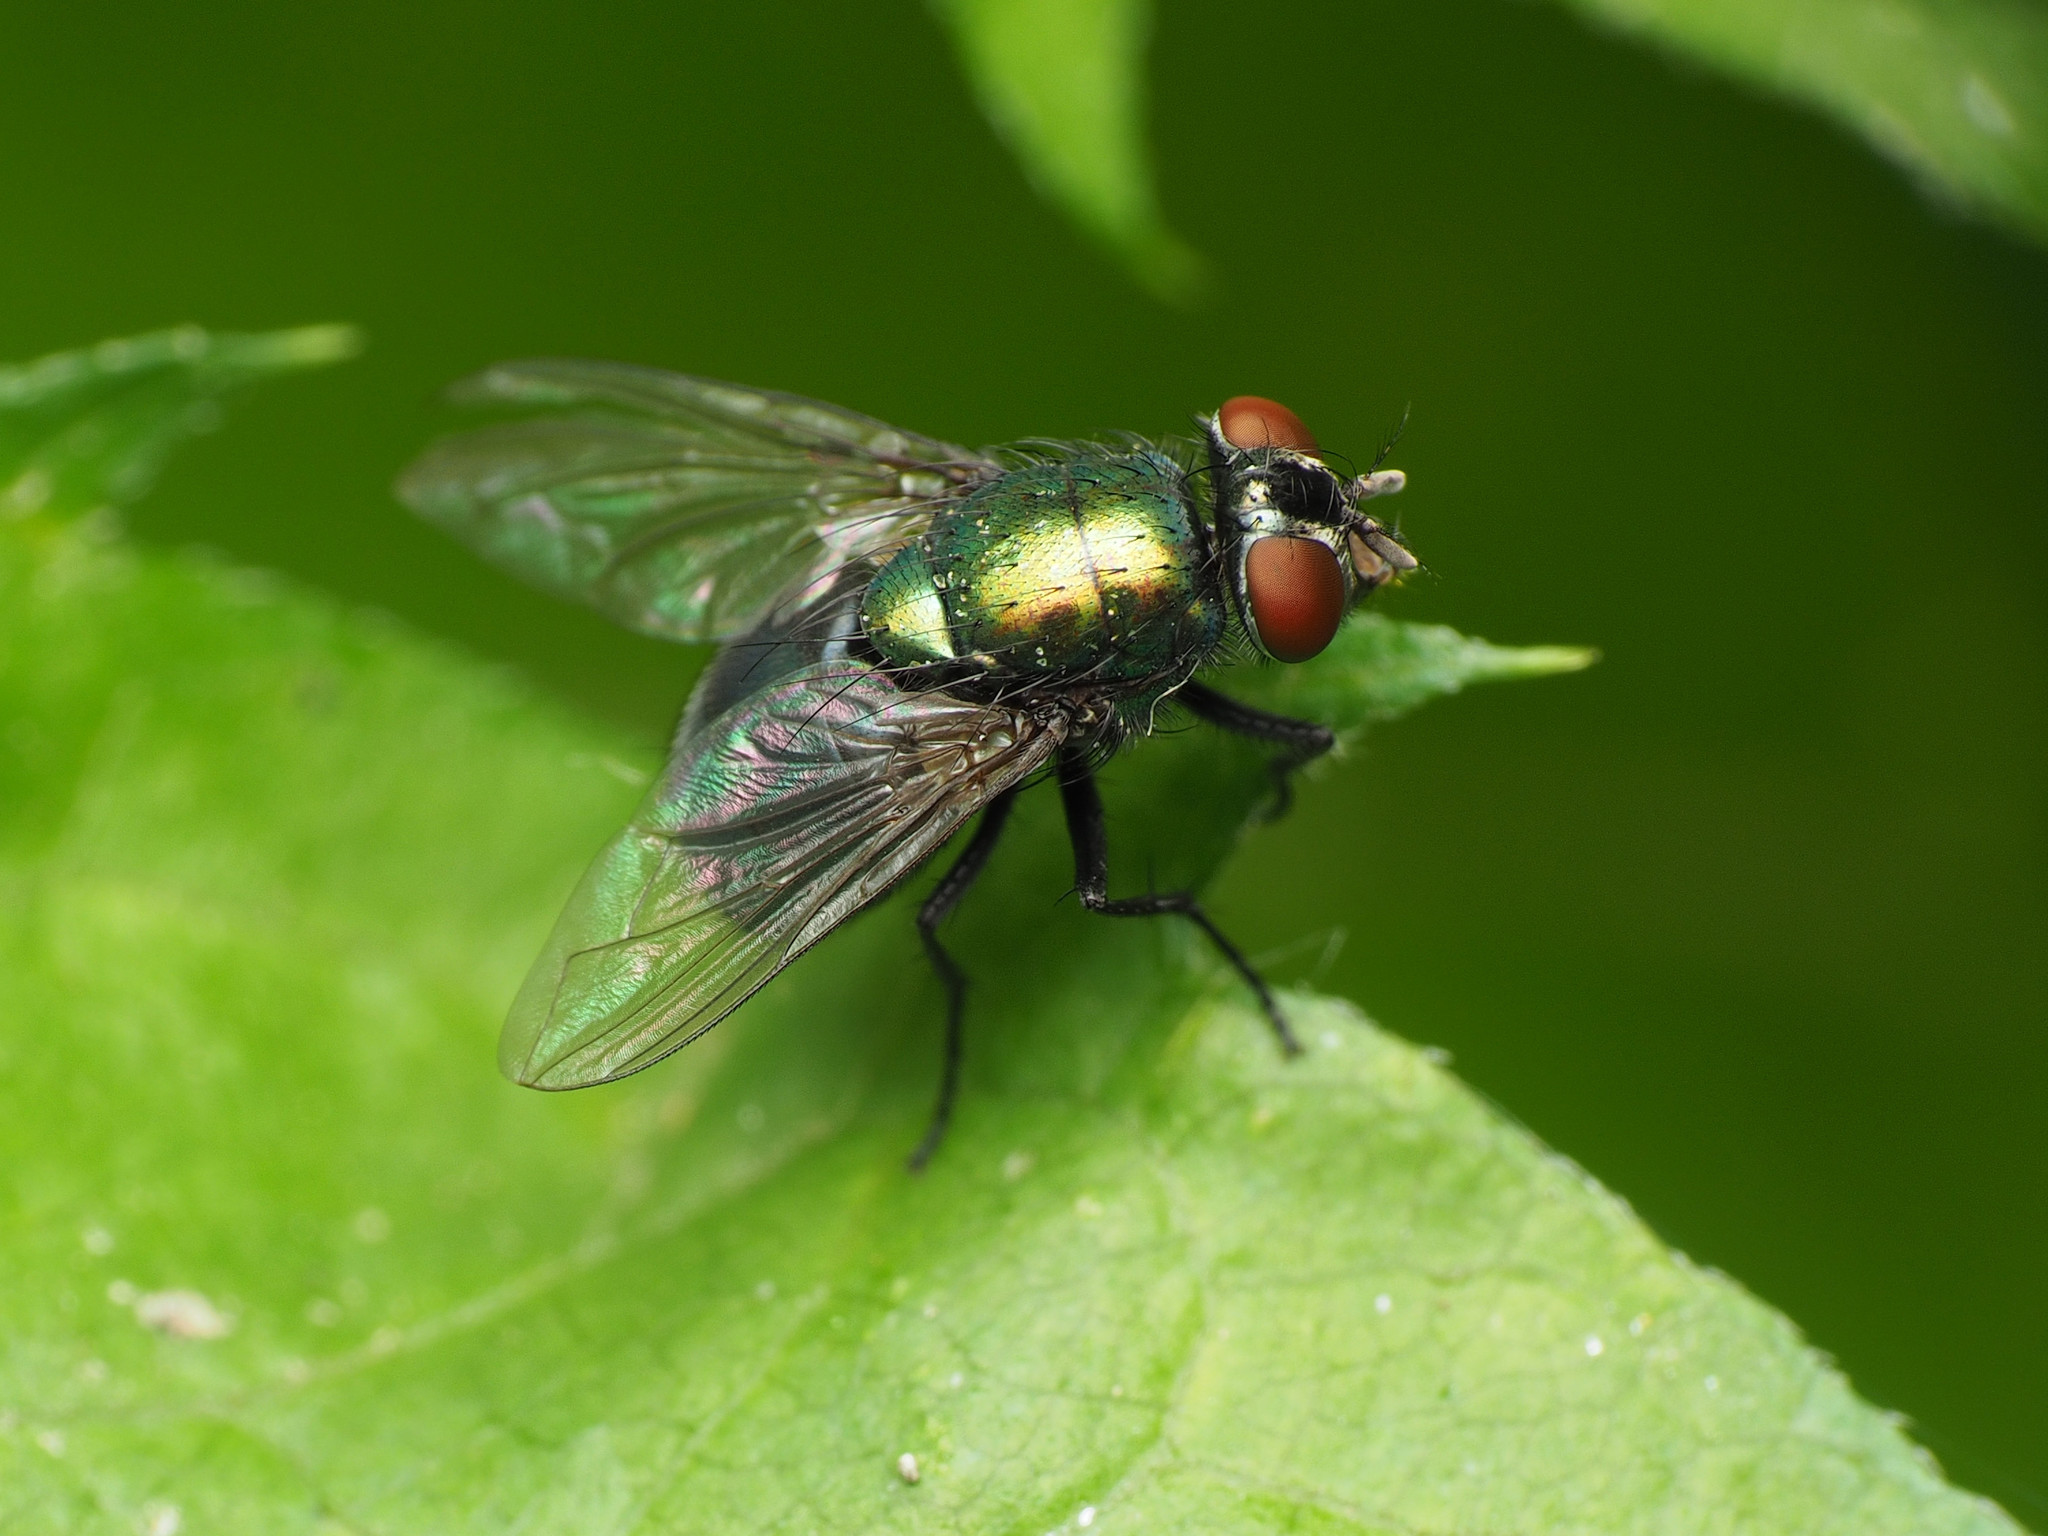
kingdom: Animalia
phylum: Arthropoda
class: Insecta
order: Diptera
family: Calliphoridae
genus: Lucilia
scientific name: Lucilia illustris
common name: Illustrious greenbottle
